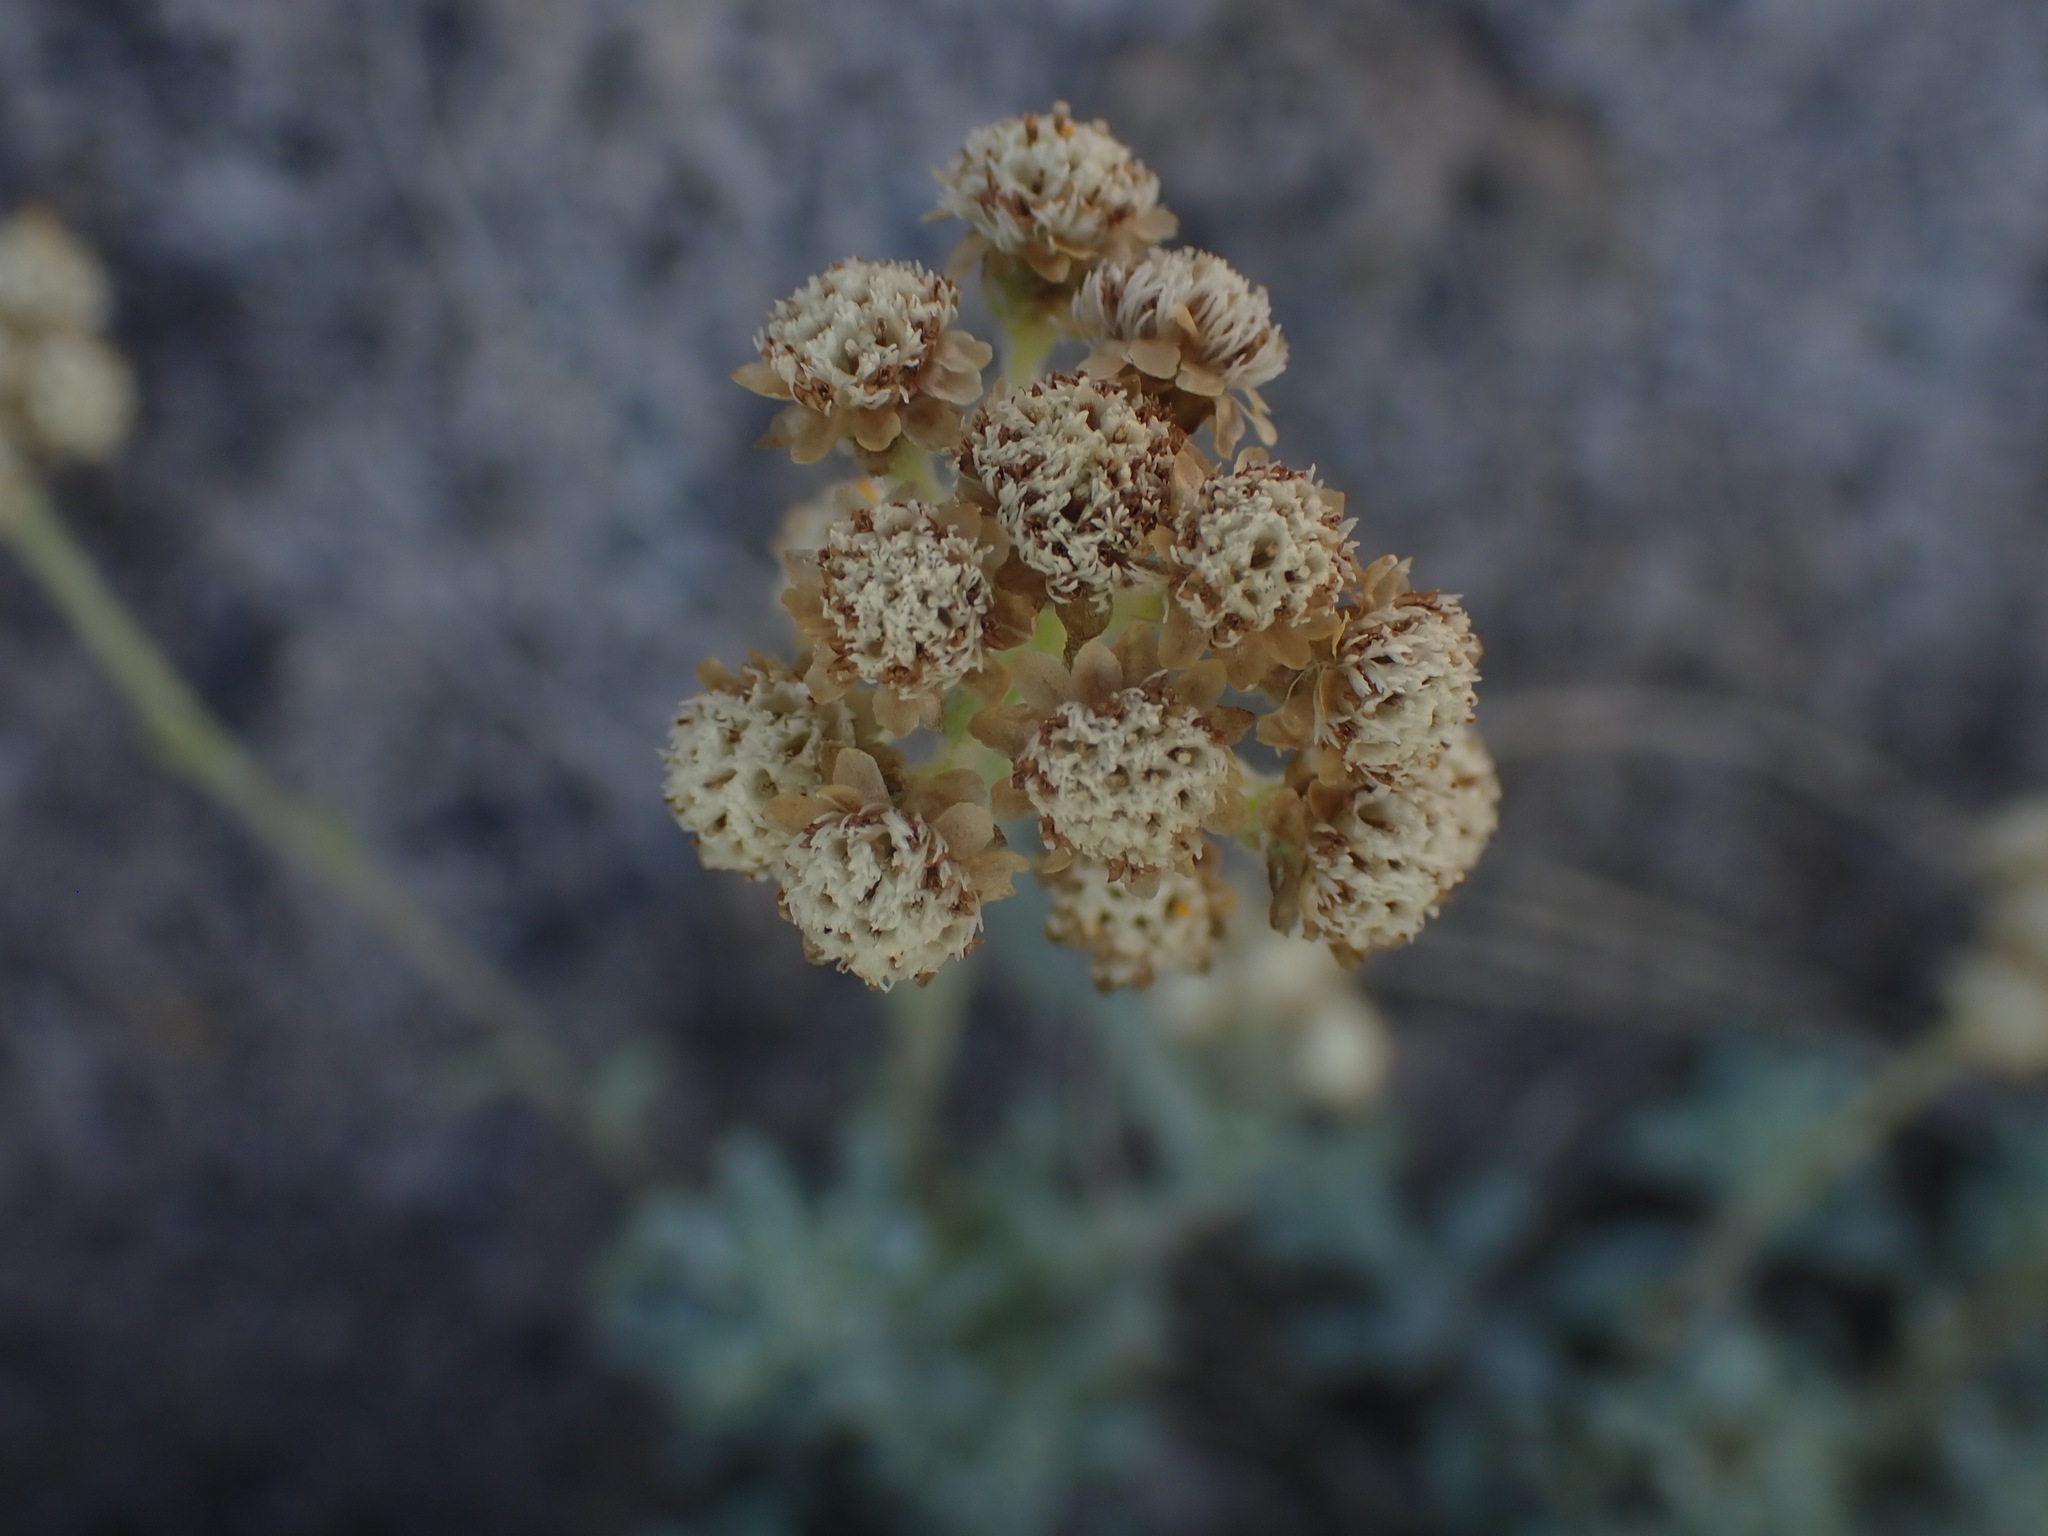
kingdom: Plantae
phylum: Tracheophyta
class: Magnoliopsida
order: Asterales
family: Asteraceae
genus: Antennaria
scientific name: Antennaria umbrinella
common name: Brown pussytoes
